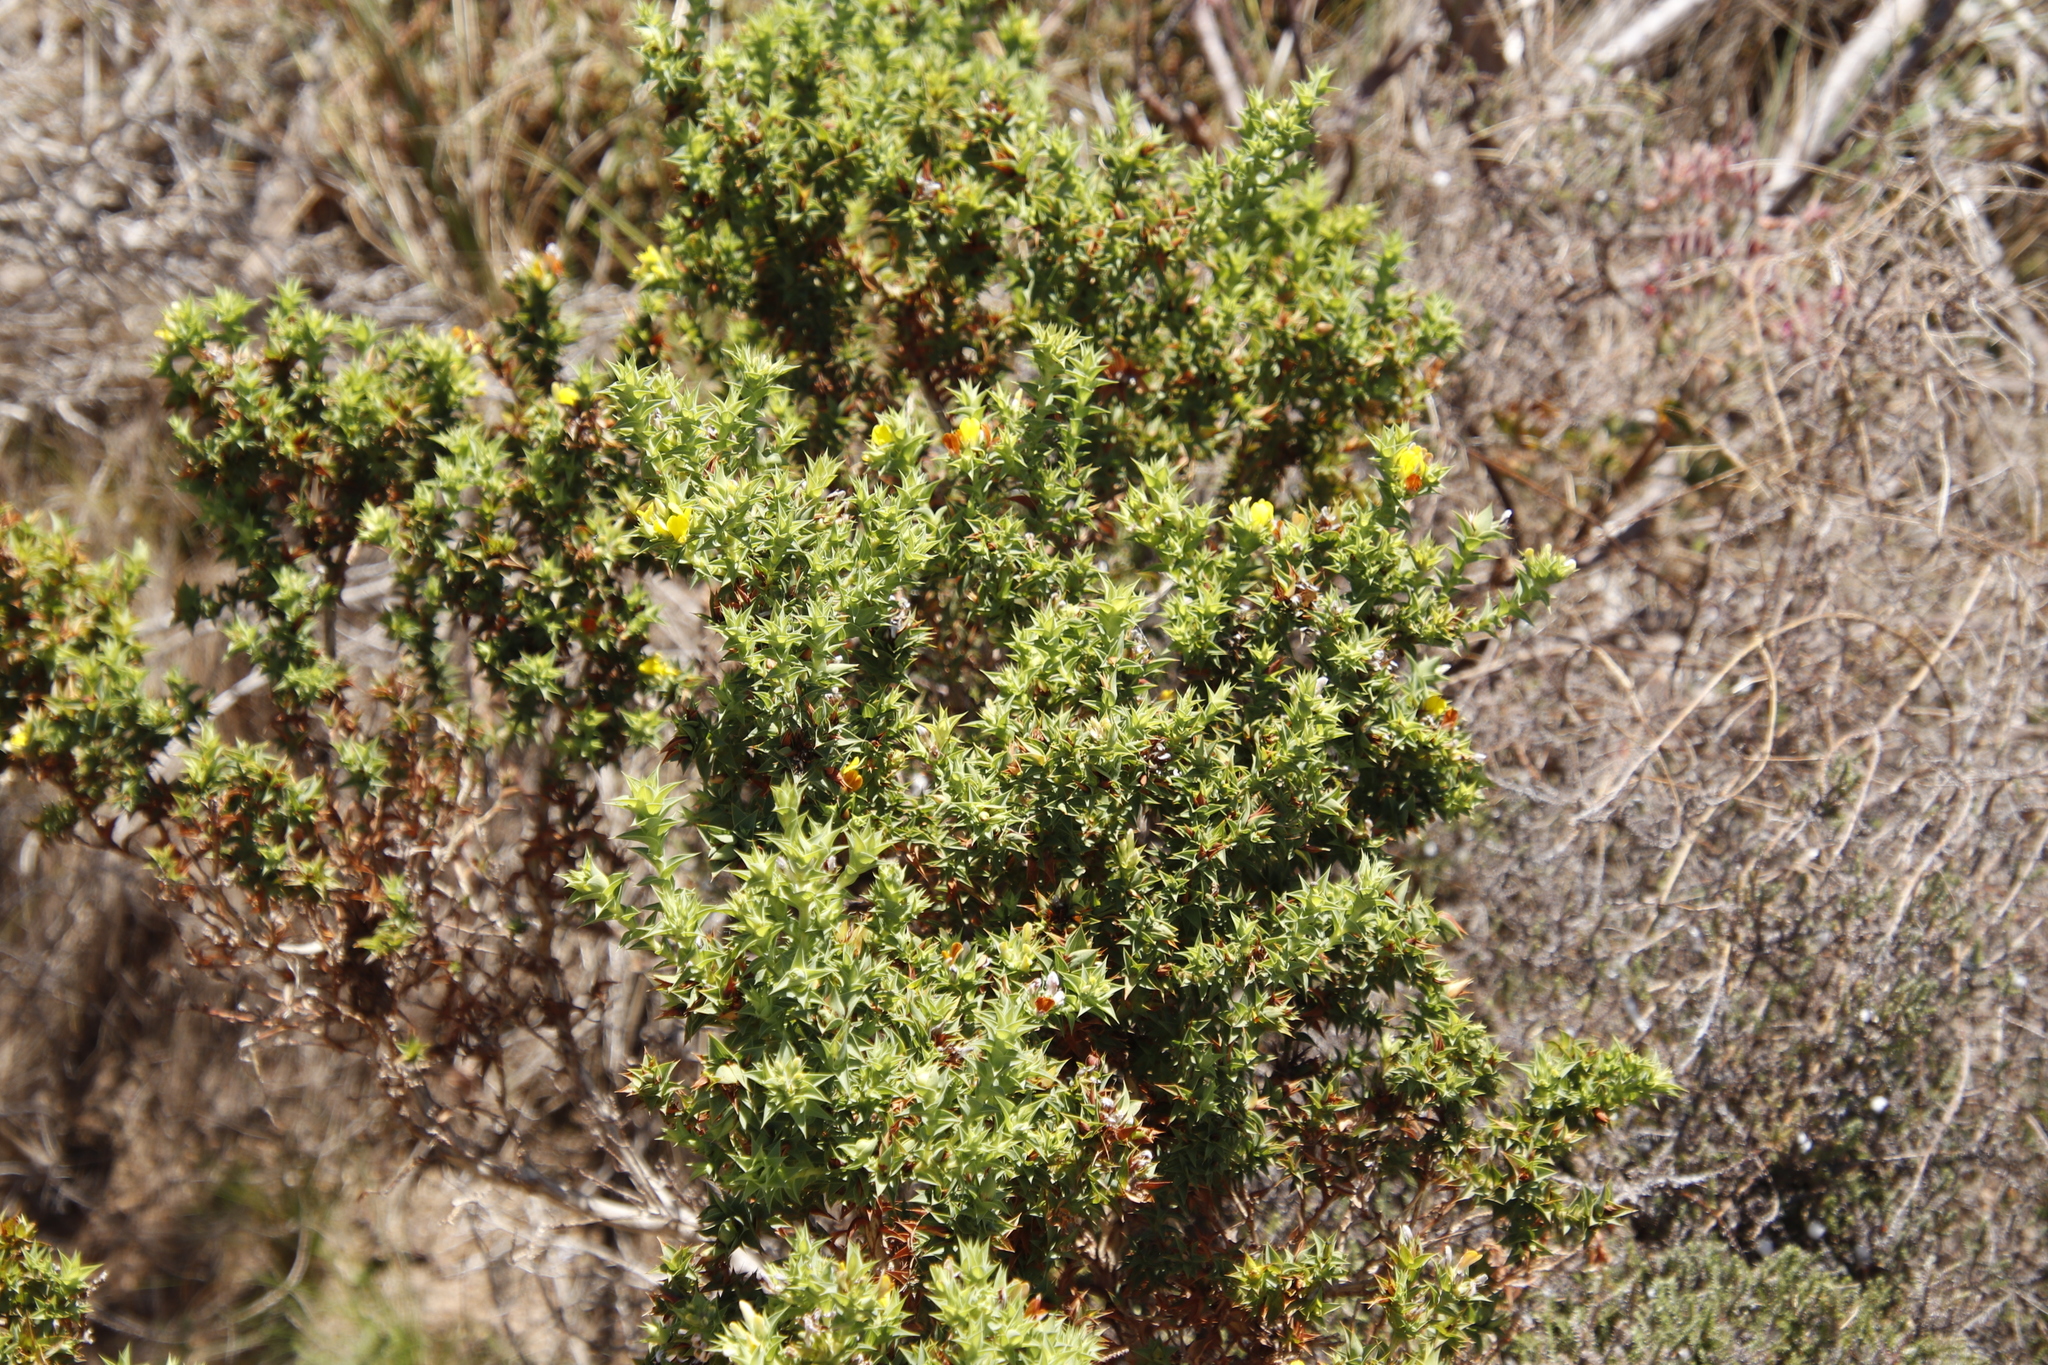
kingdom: Plantae
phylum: Tracheophyta
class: Magnoliopsida
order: Fabales
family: Fabaceae
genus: Aspalathus
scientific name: Aspalathus cordata
